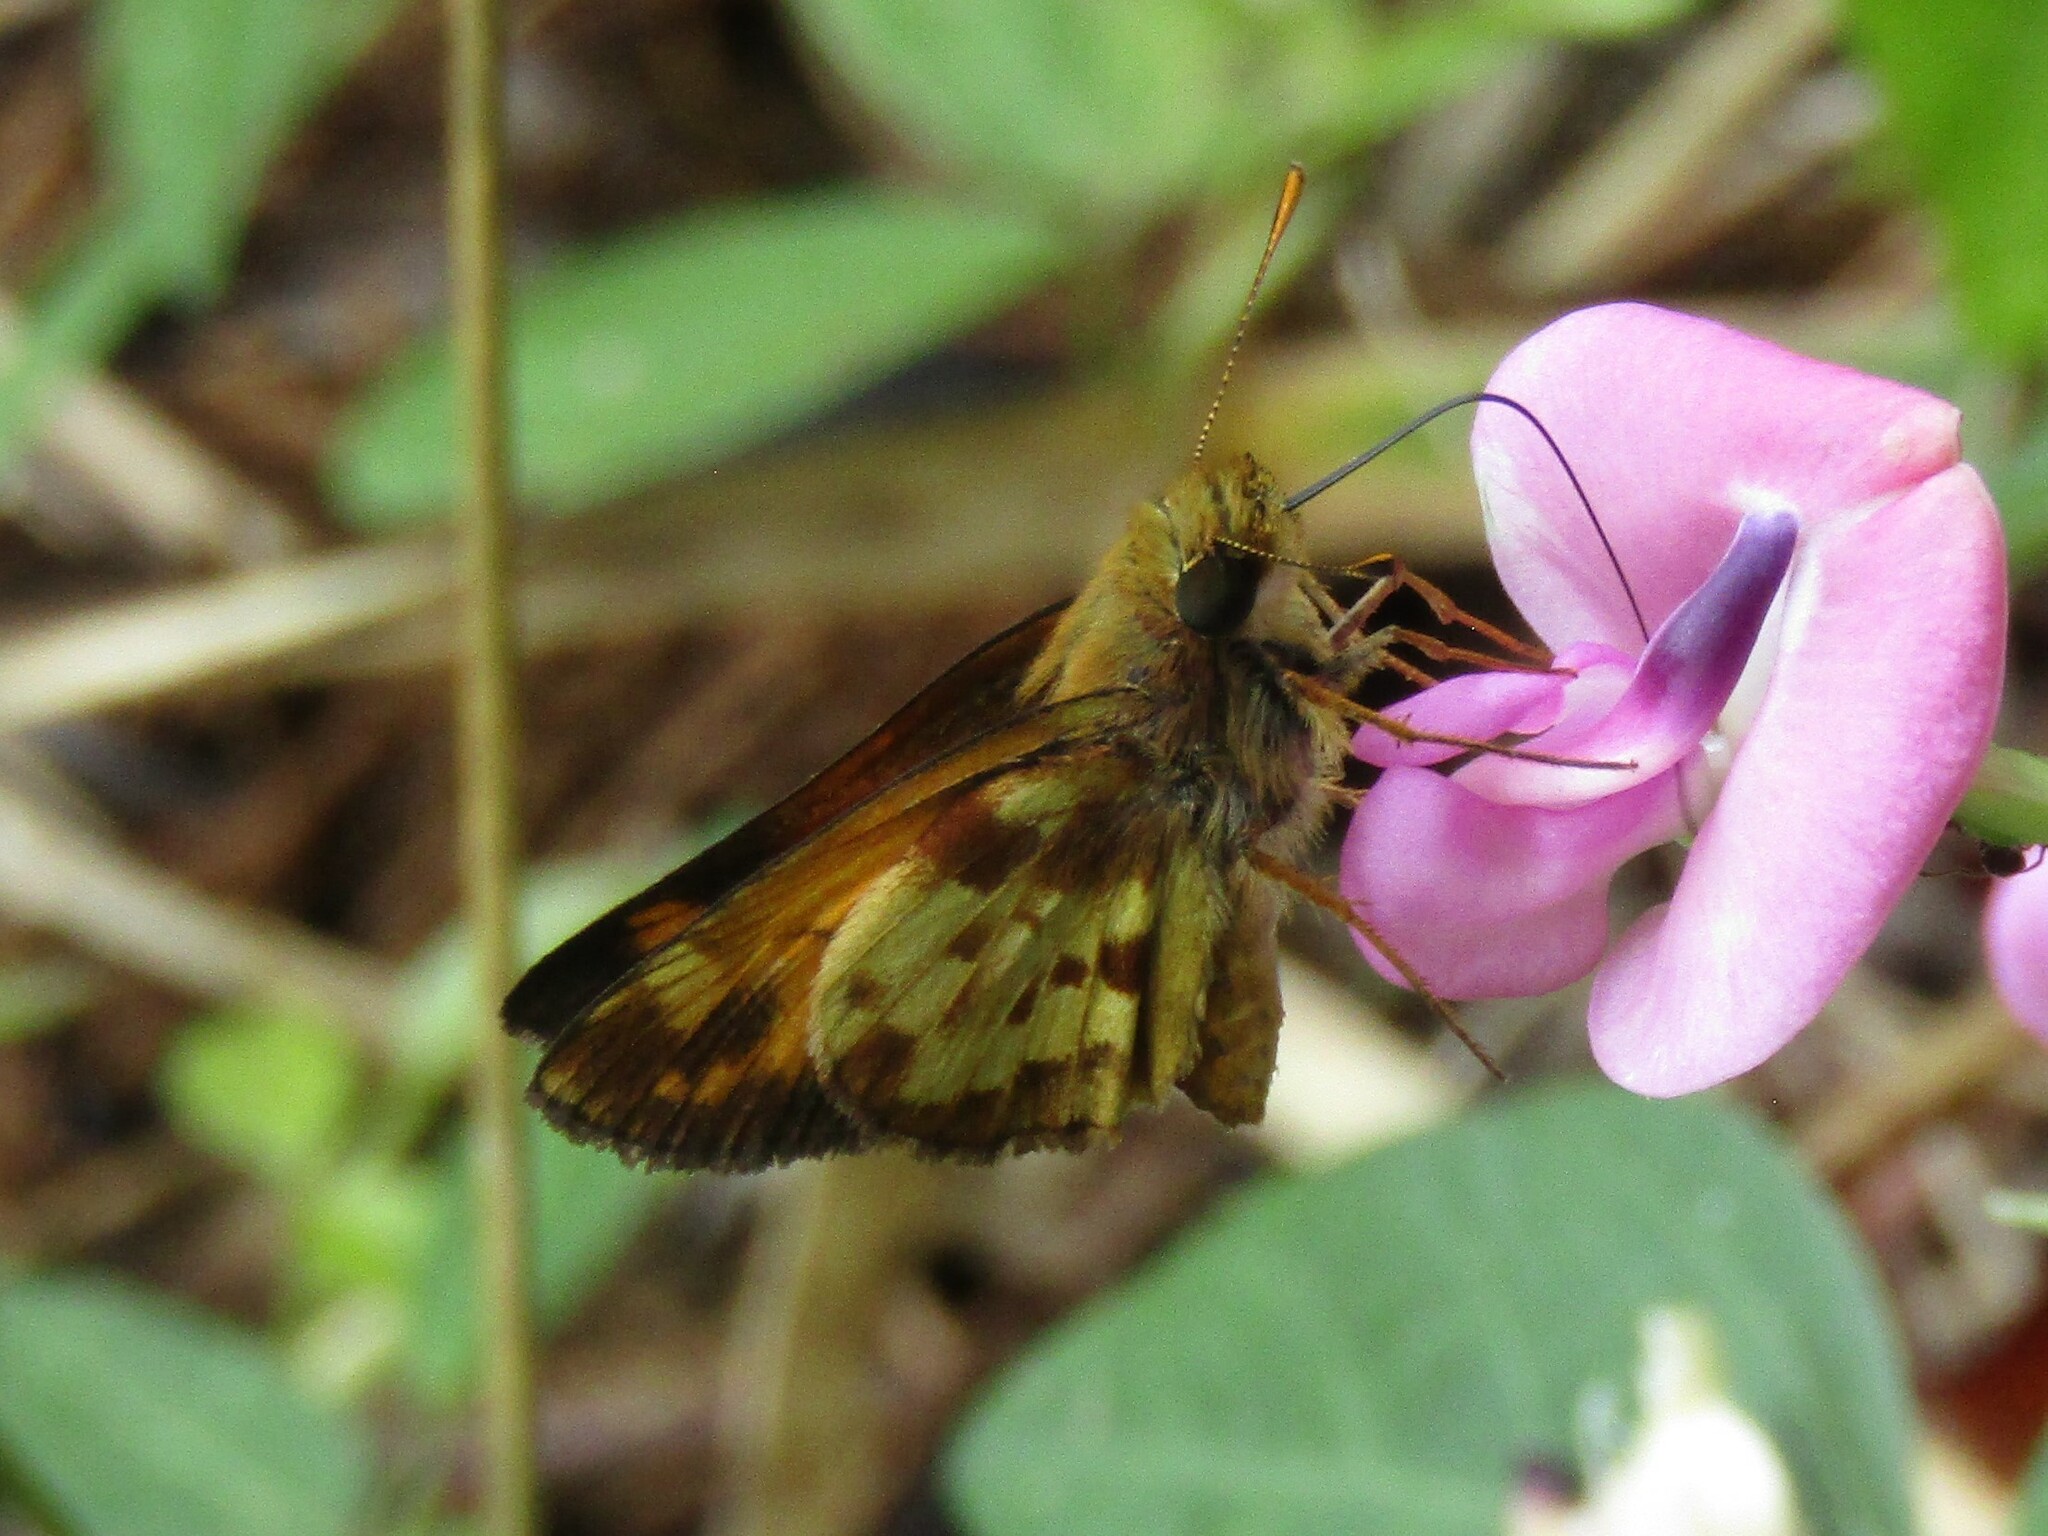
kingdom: Animalia
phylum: Arthropoda
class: Insecta
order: Lepidoptera
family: Hesperiidae
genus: Lon
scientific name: Lon zabulon
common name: Zabulon skipper
